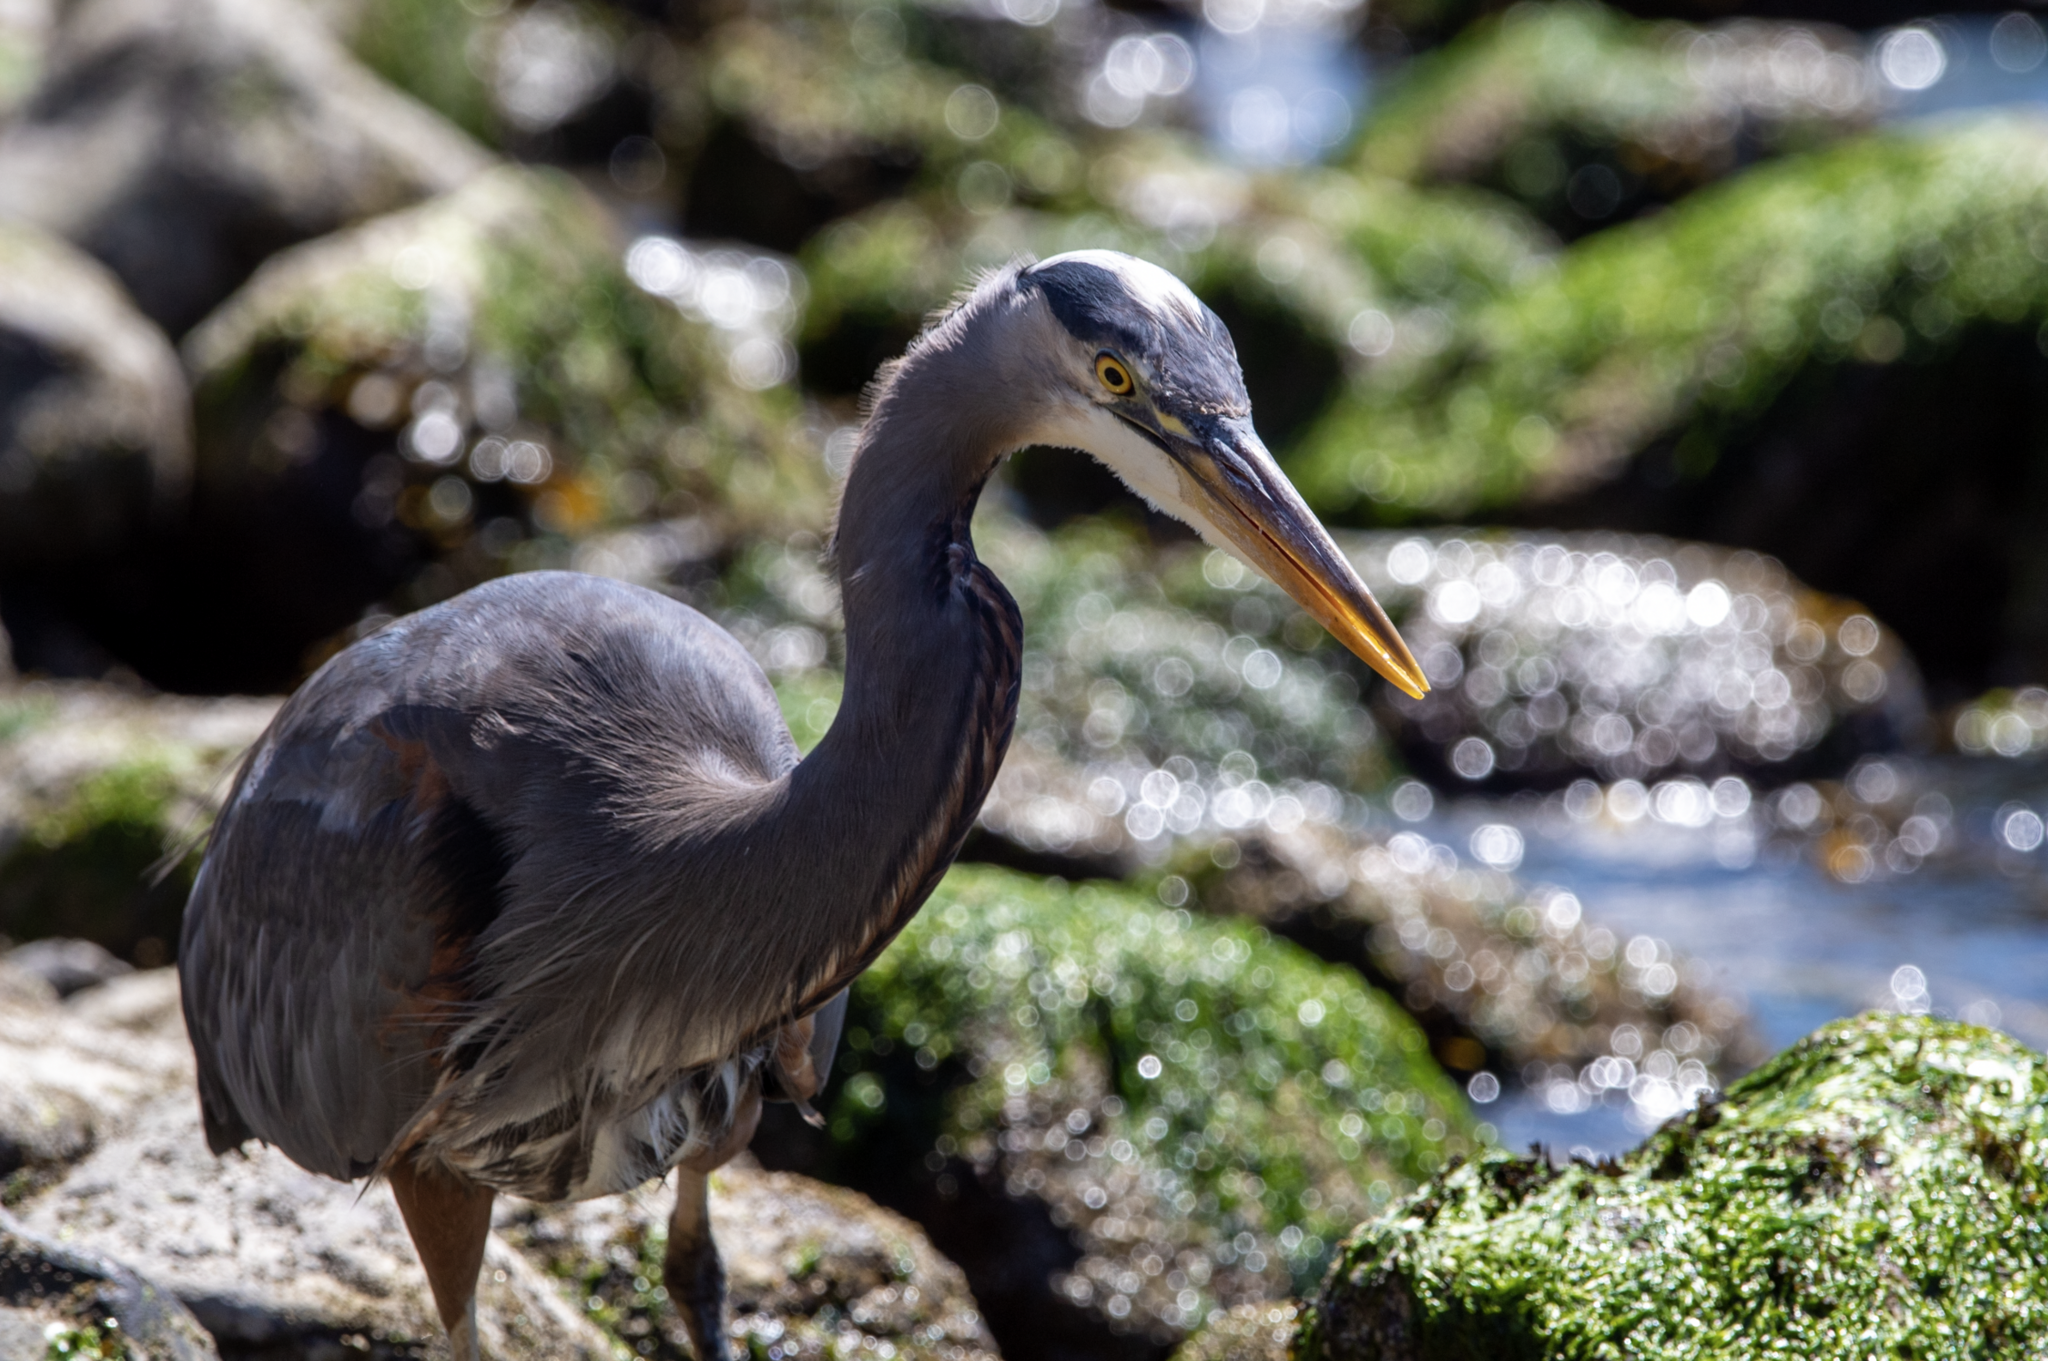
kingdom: Animalia
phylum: Chordata
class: Aves
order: Pelecaniformes
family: Ardeidae
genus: Ardea
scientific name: Ardea herodias
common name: Great blue heron
